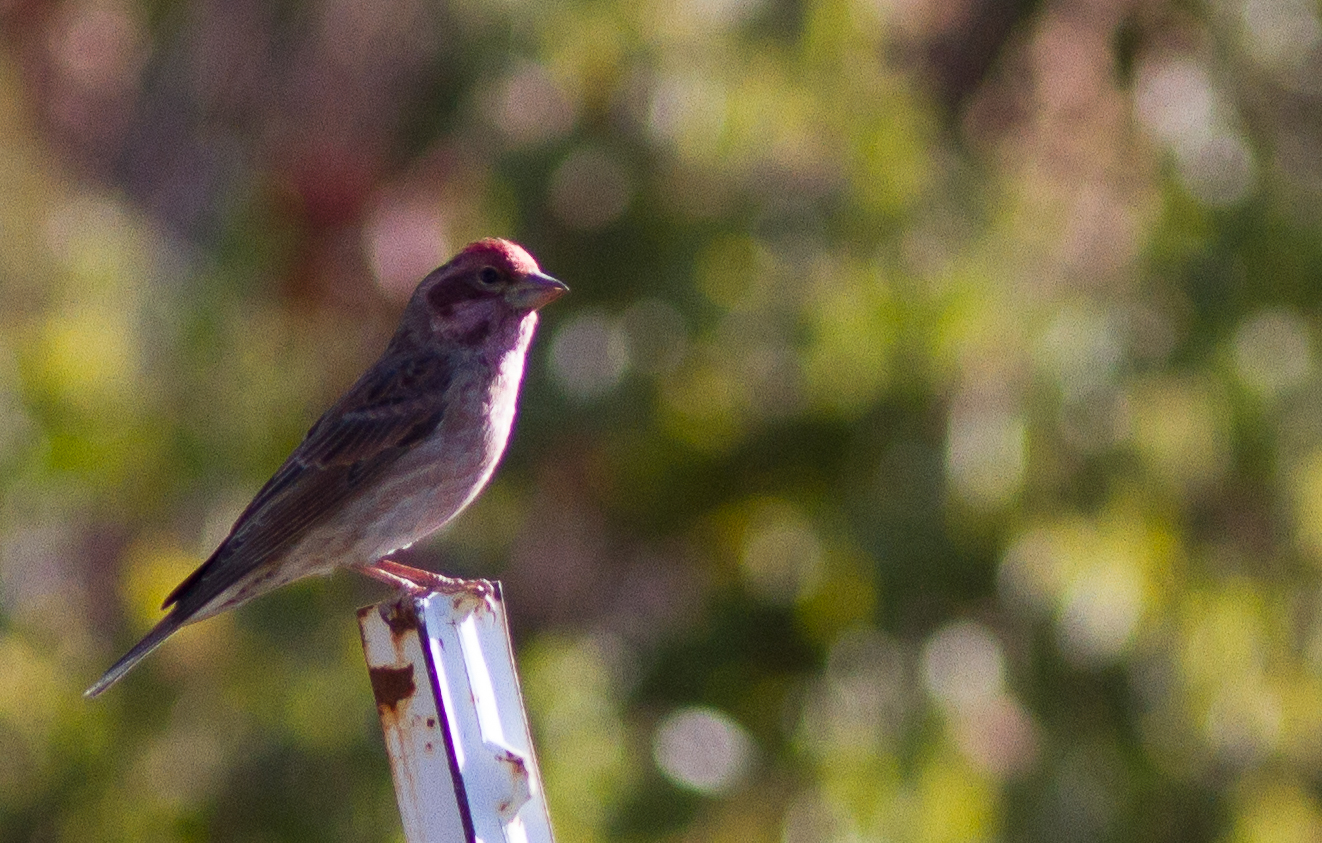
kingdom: Animalia
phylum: Chordata
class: Aves
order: Passeriformes
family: Fringillidae
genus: Haemorhous
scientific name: Haemorhous cassinii
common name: Cassin's finch
